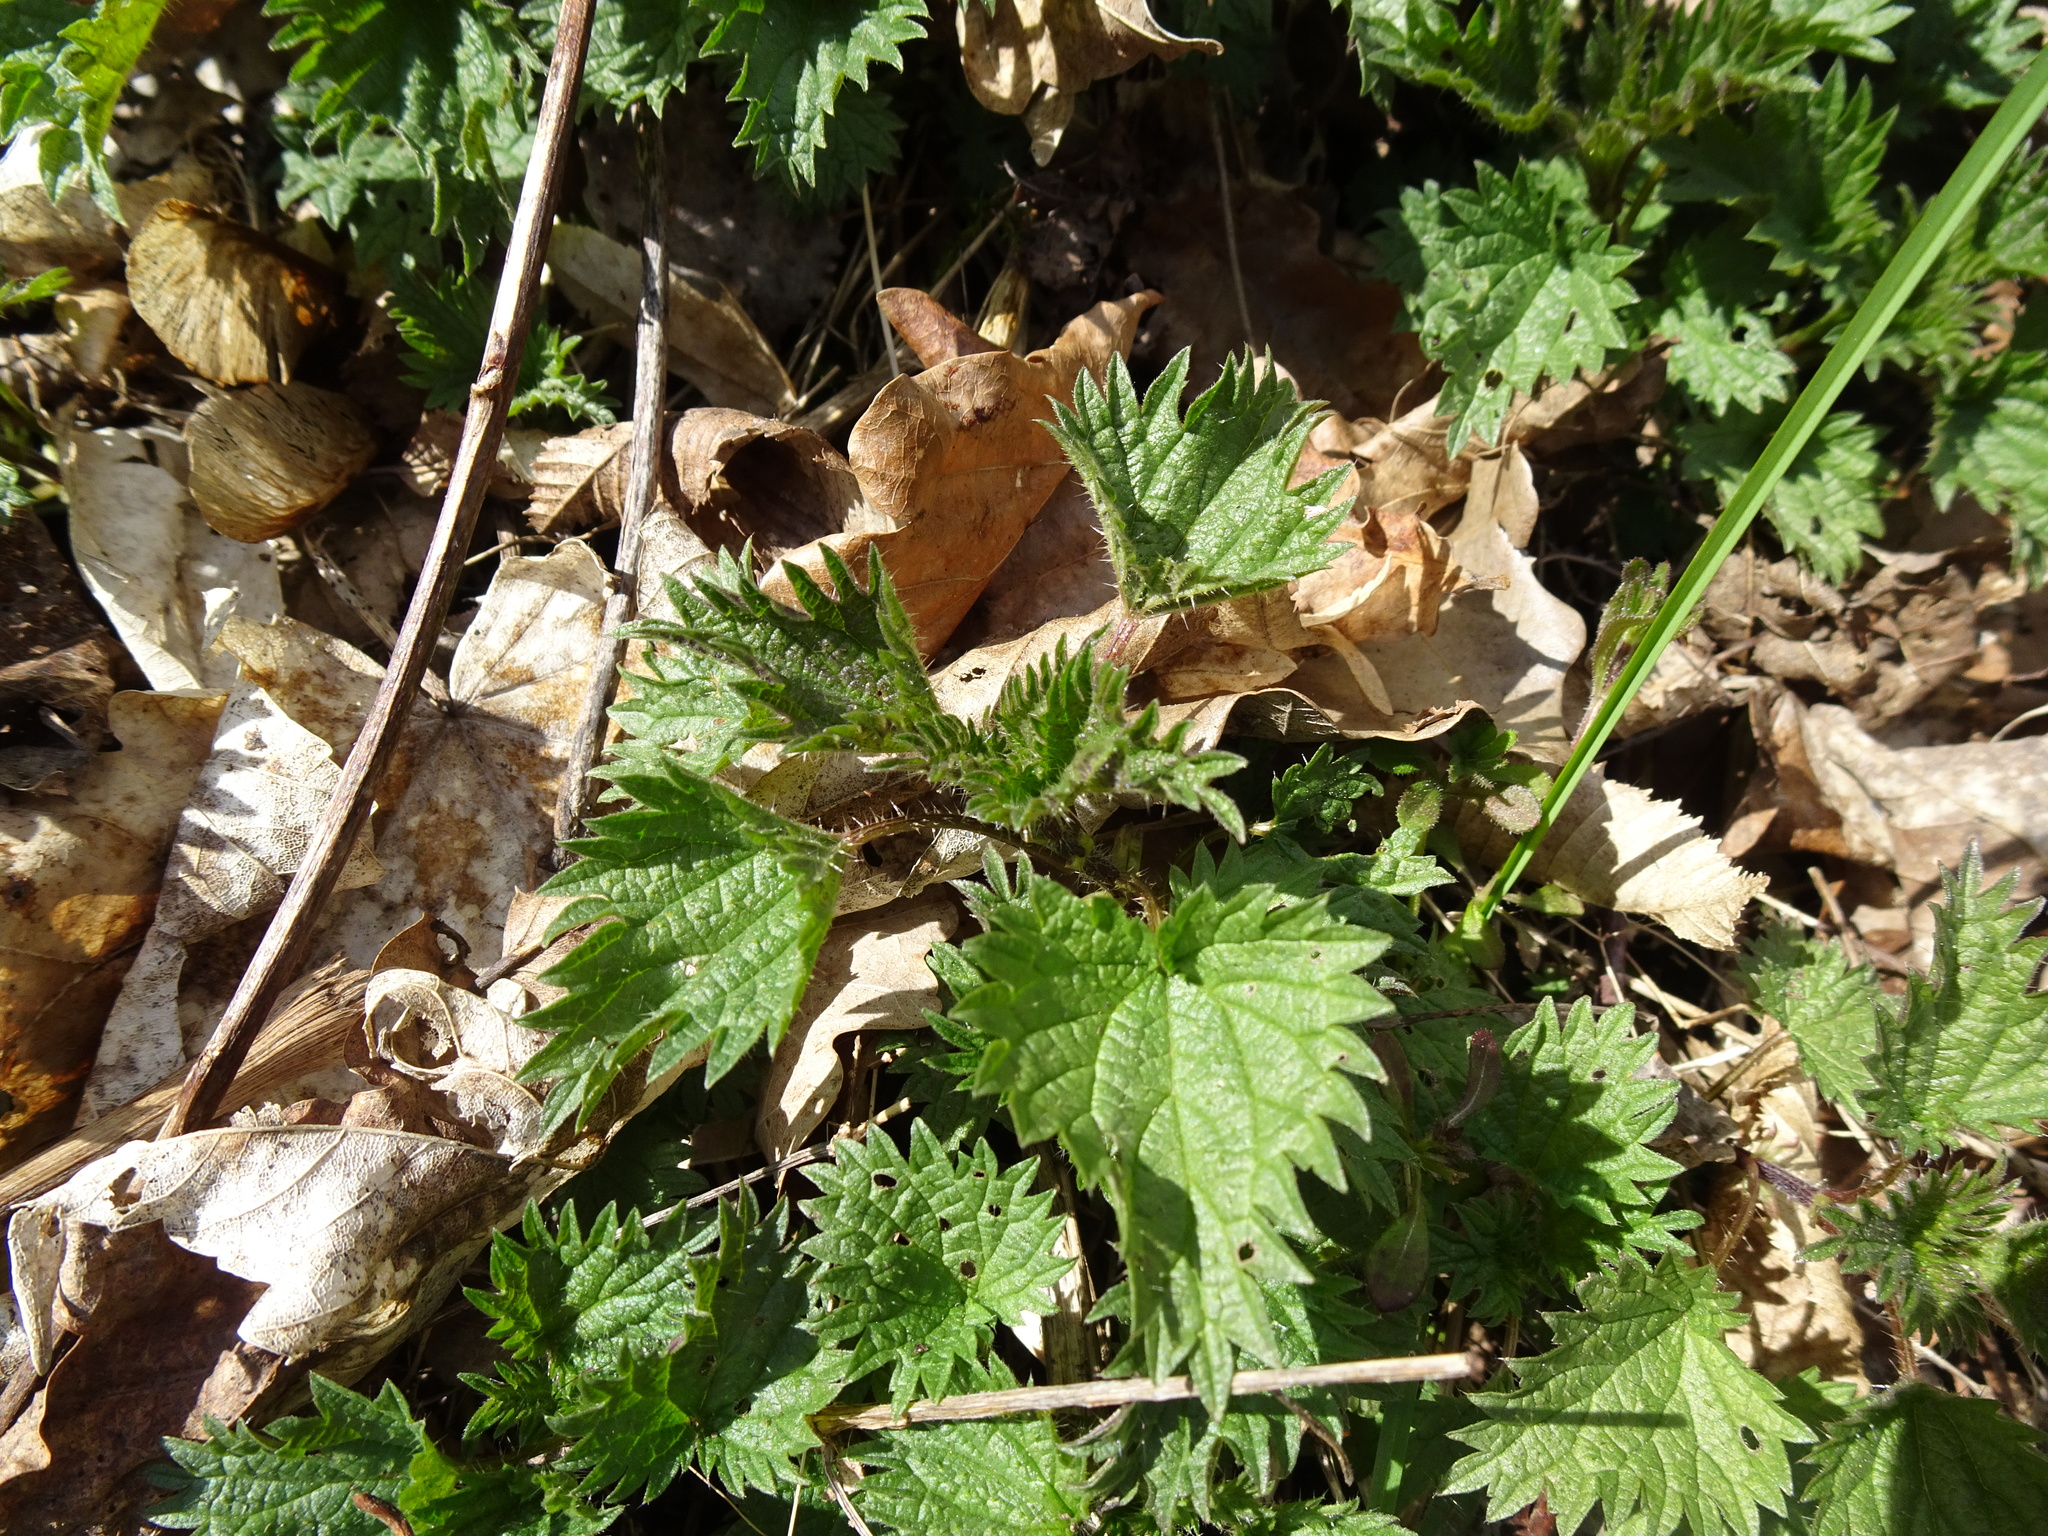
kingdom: Plantae
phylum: Tracheophyta
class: Magnoliopsida
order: Rosales
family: Urticaceae
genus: Urtica
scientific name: Urtica dioica
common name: Common nettle
